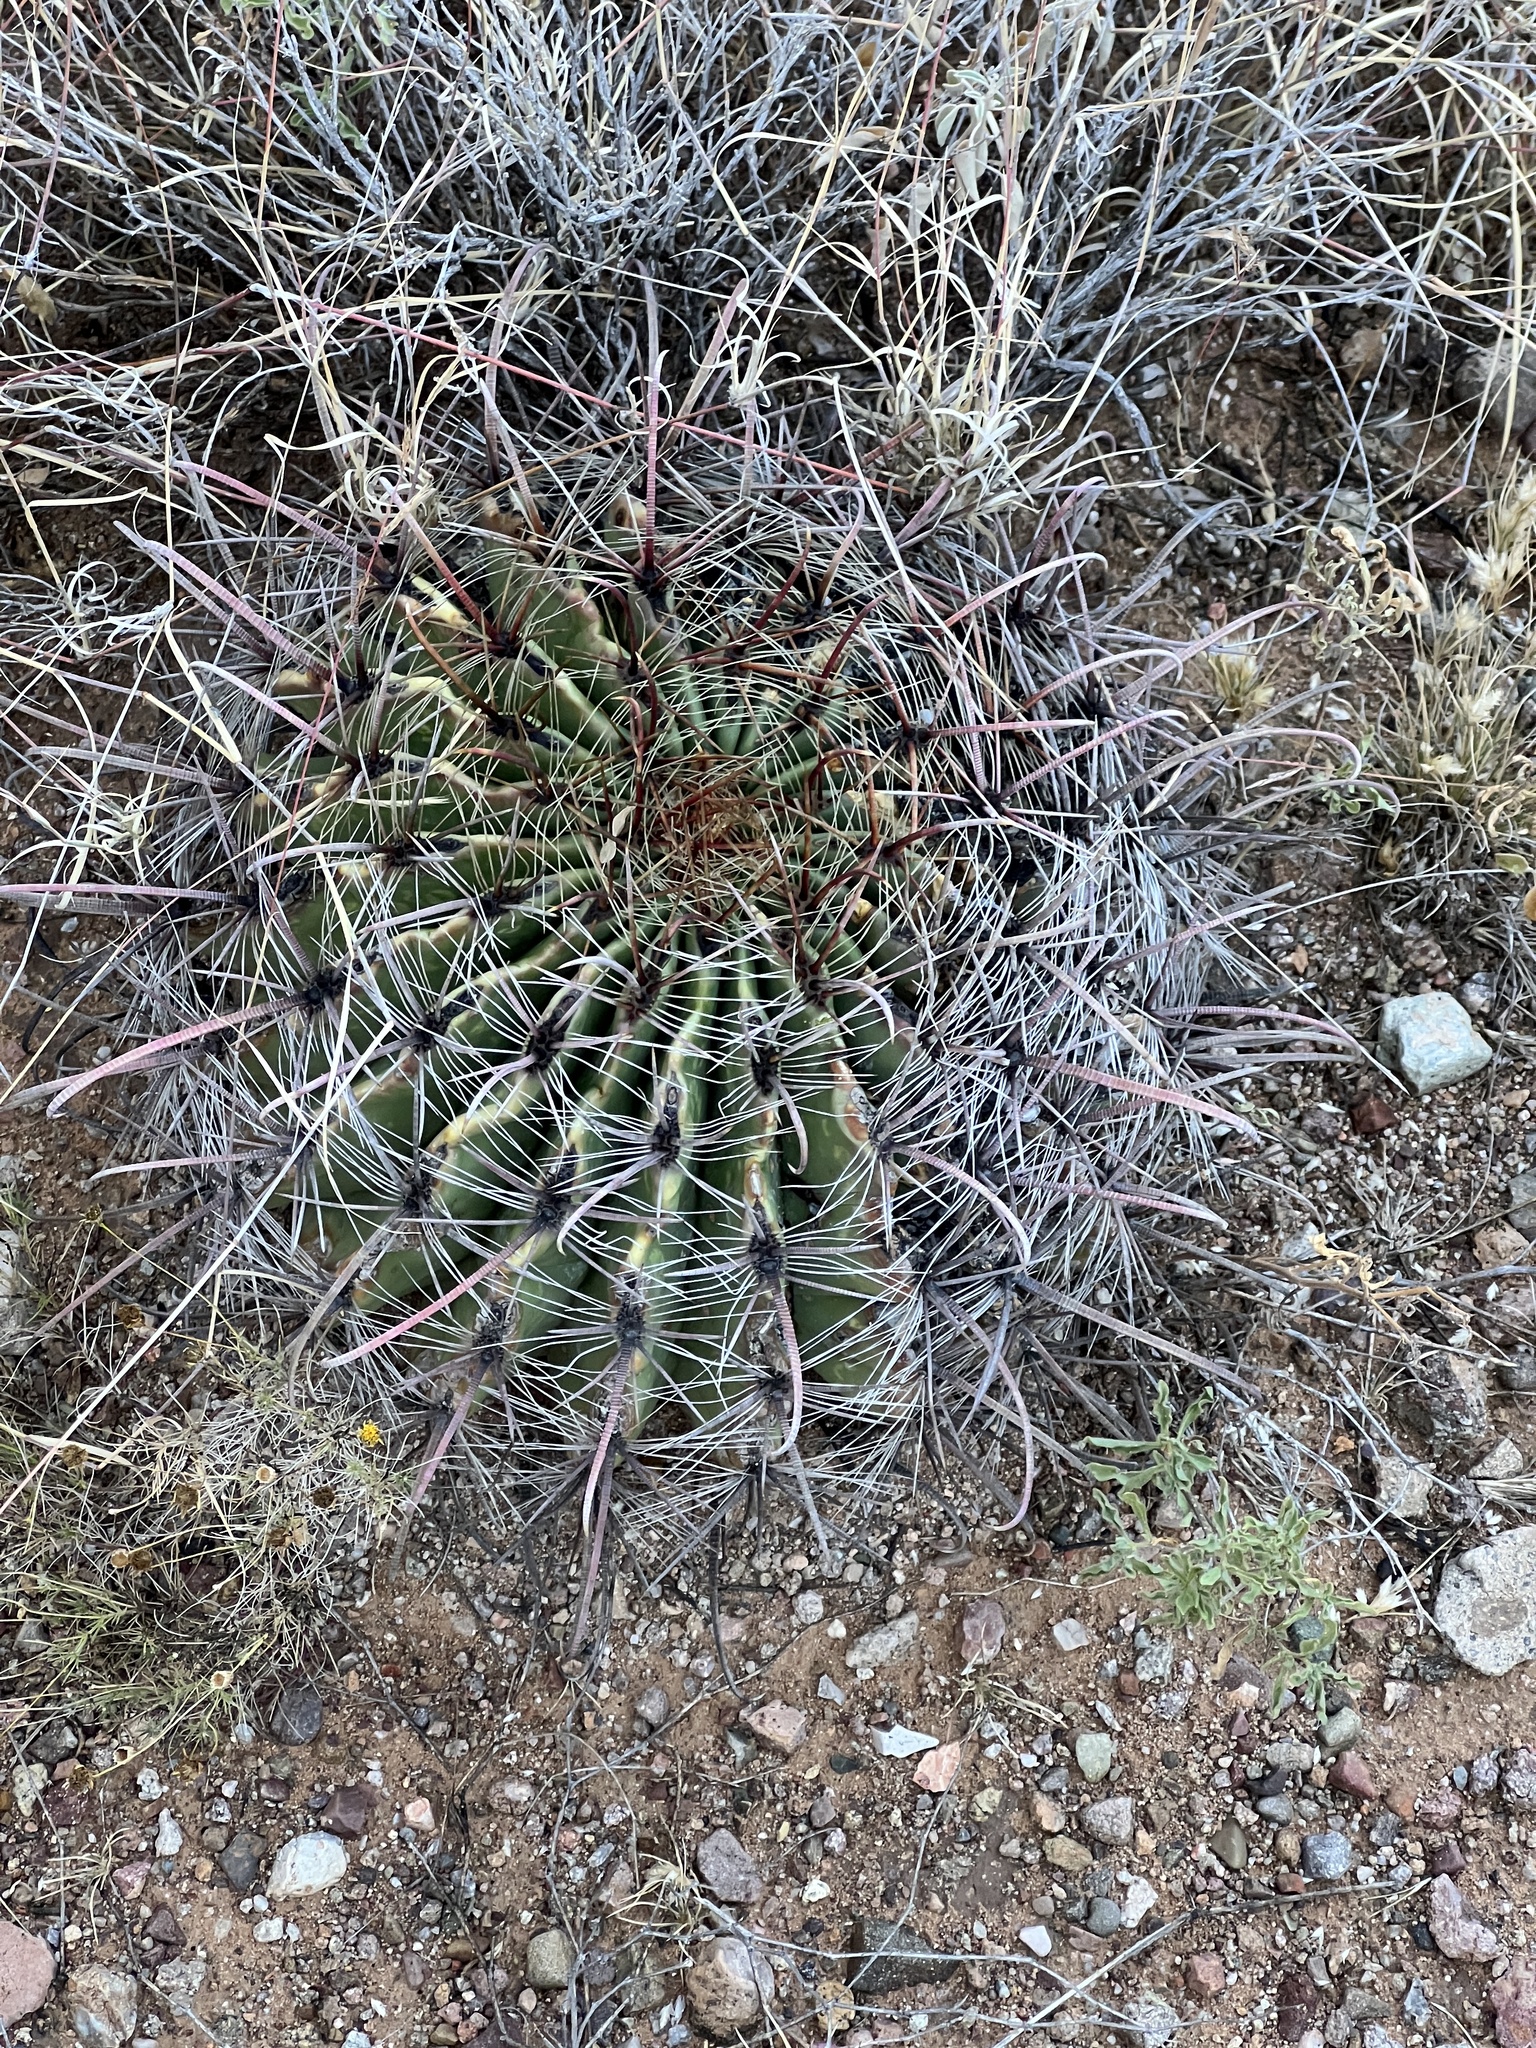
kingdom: Plantae
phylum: Tracheophyta
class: Magnoliopsida
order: Caryophyllales
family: Cactaceae
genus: Ferocactus
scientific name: Ferocactus wislizeni
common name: Candy barrel cactus
